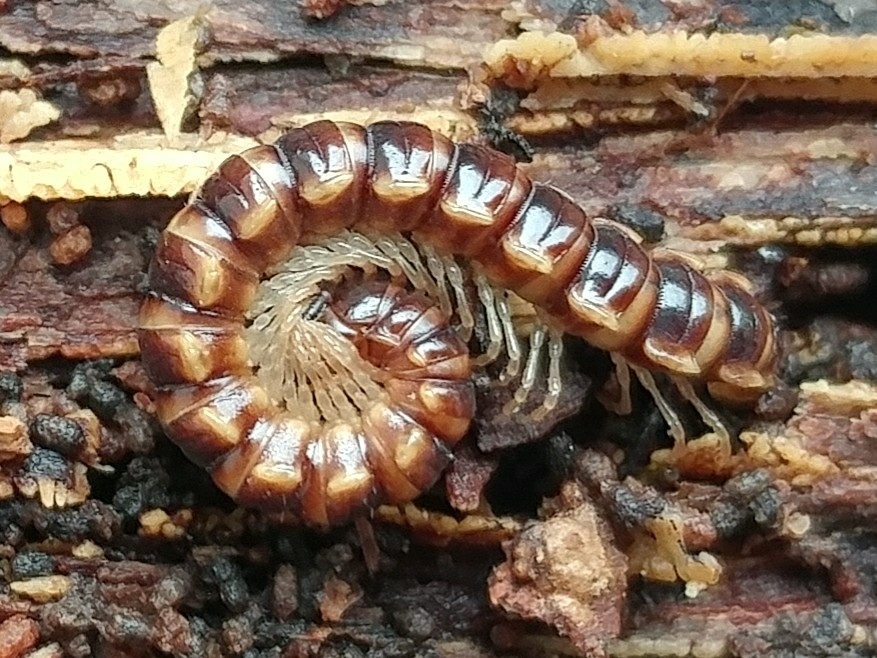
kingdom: Animalia
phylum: Arthropoda
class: Diplopoda
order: Polydesmida
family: Paradoxosomatidae
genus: Oxidus
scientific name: Oxidus gracilis
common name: Greenhouse millipede
